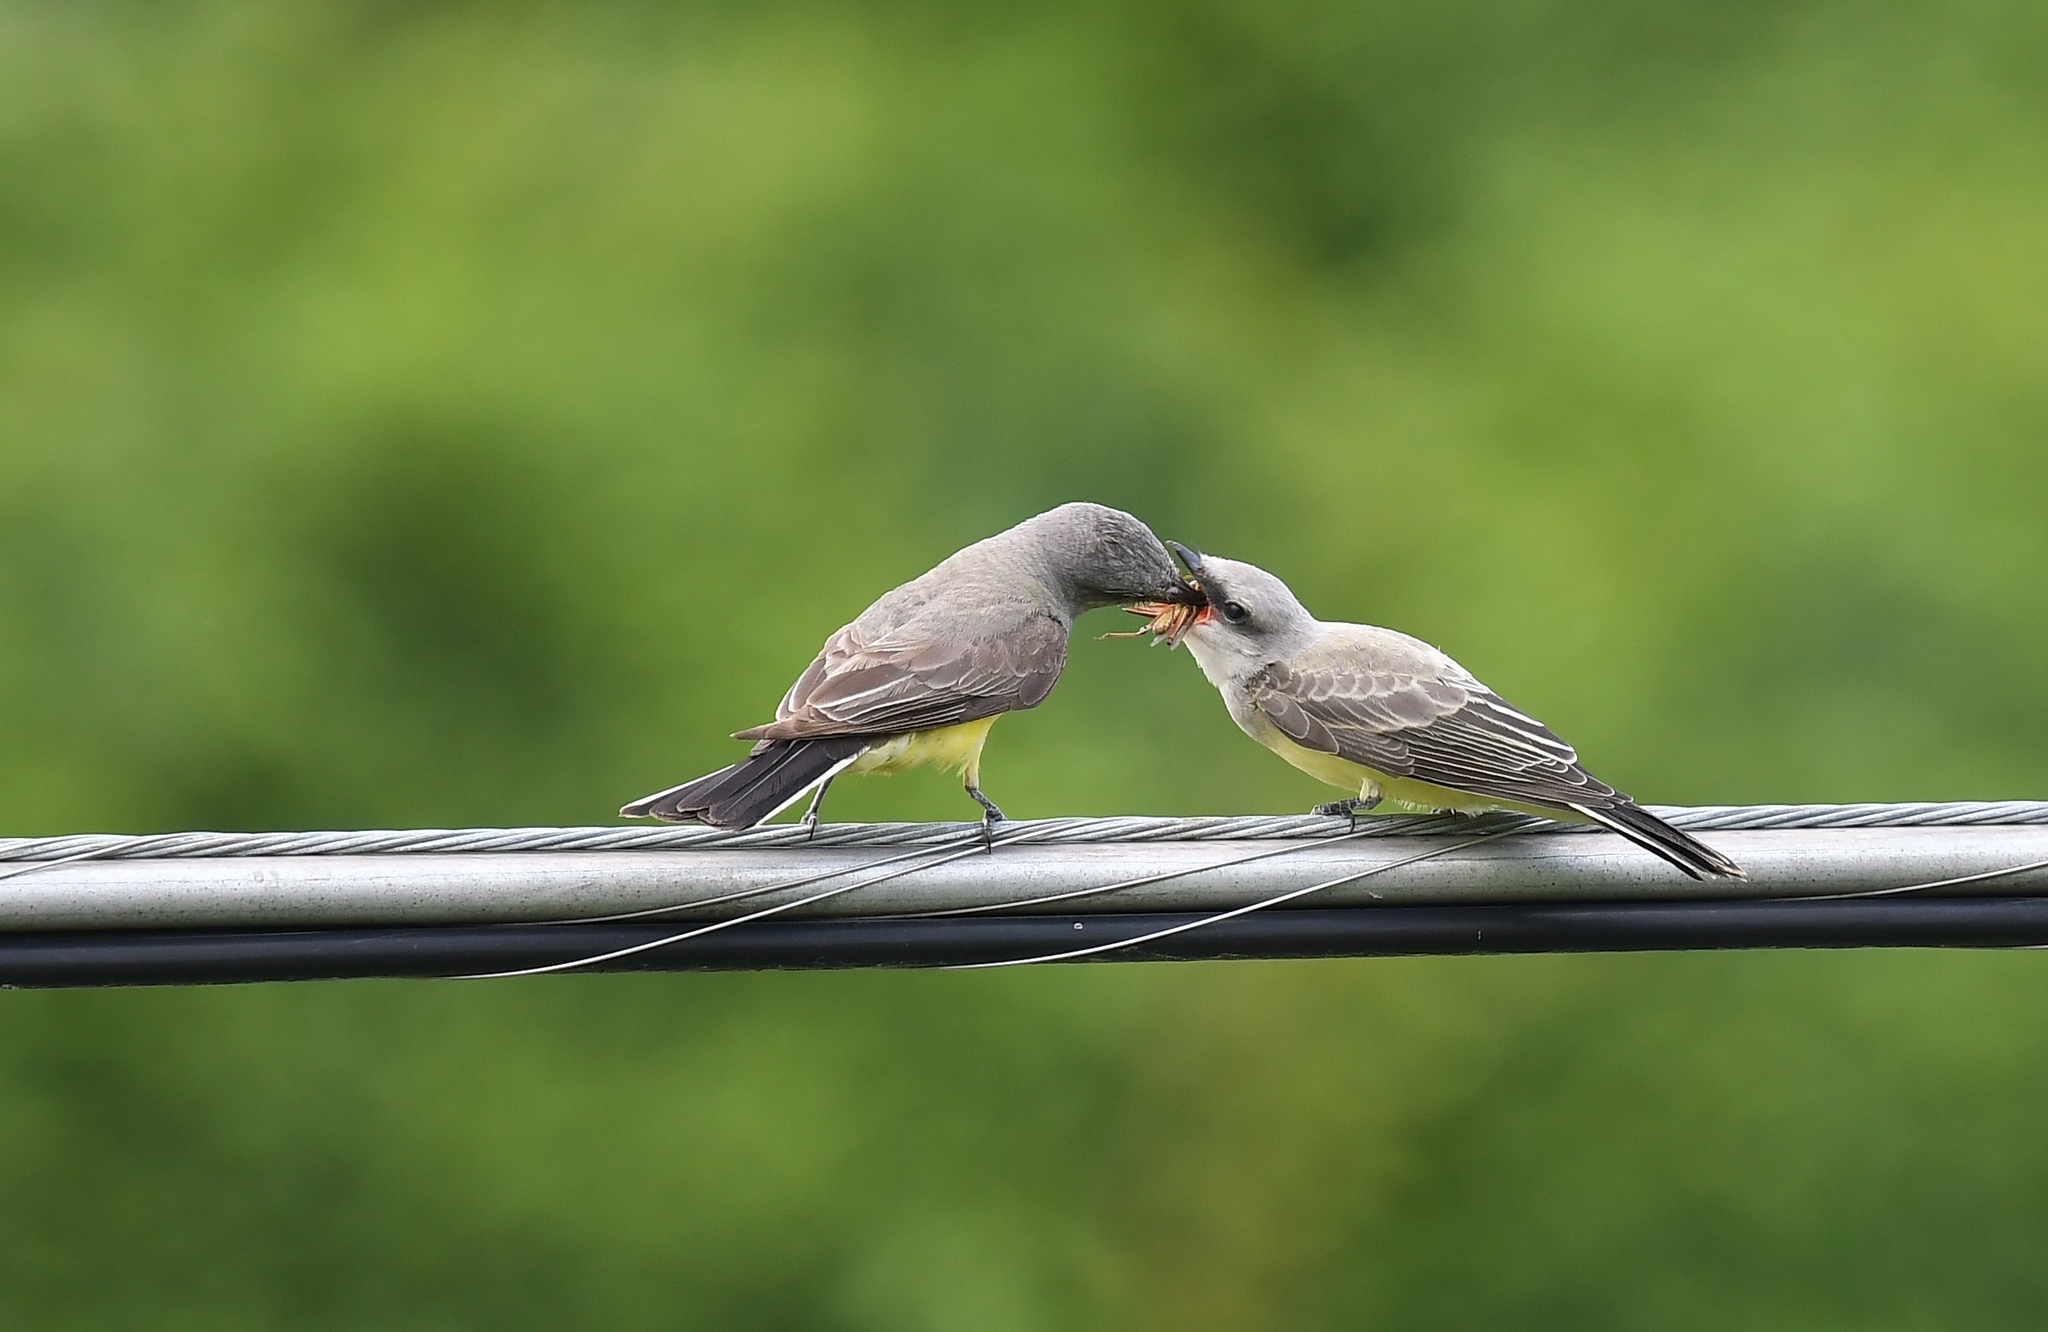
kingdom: Animalia
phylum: Chordata
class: Aves
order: Passeriformes
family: Tyrannidae
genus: Tyrannus
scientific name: Tyrannus verticalis
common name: Western kingbird
